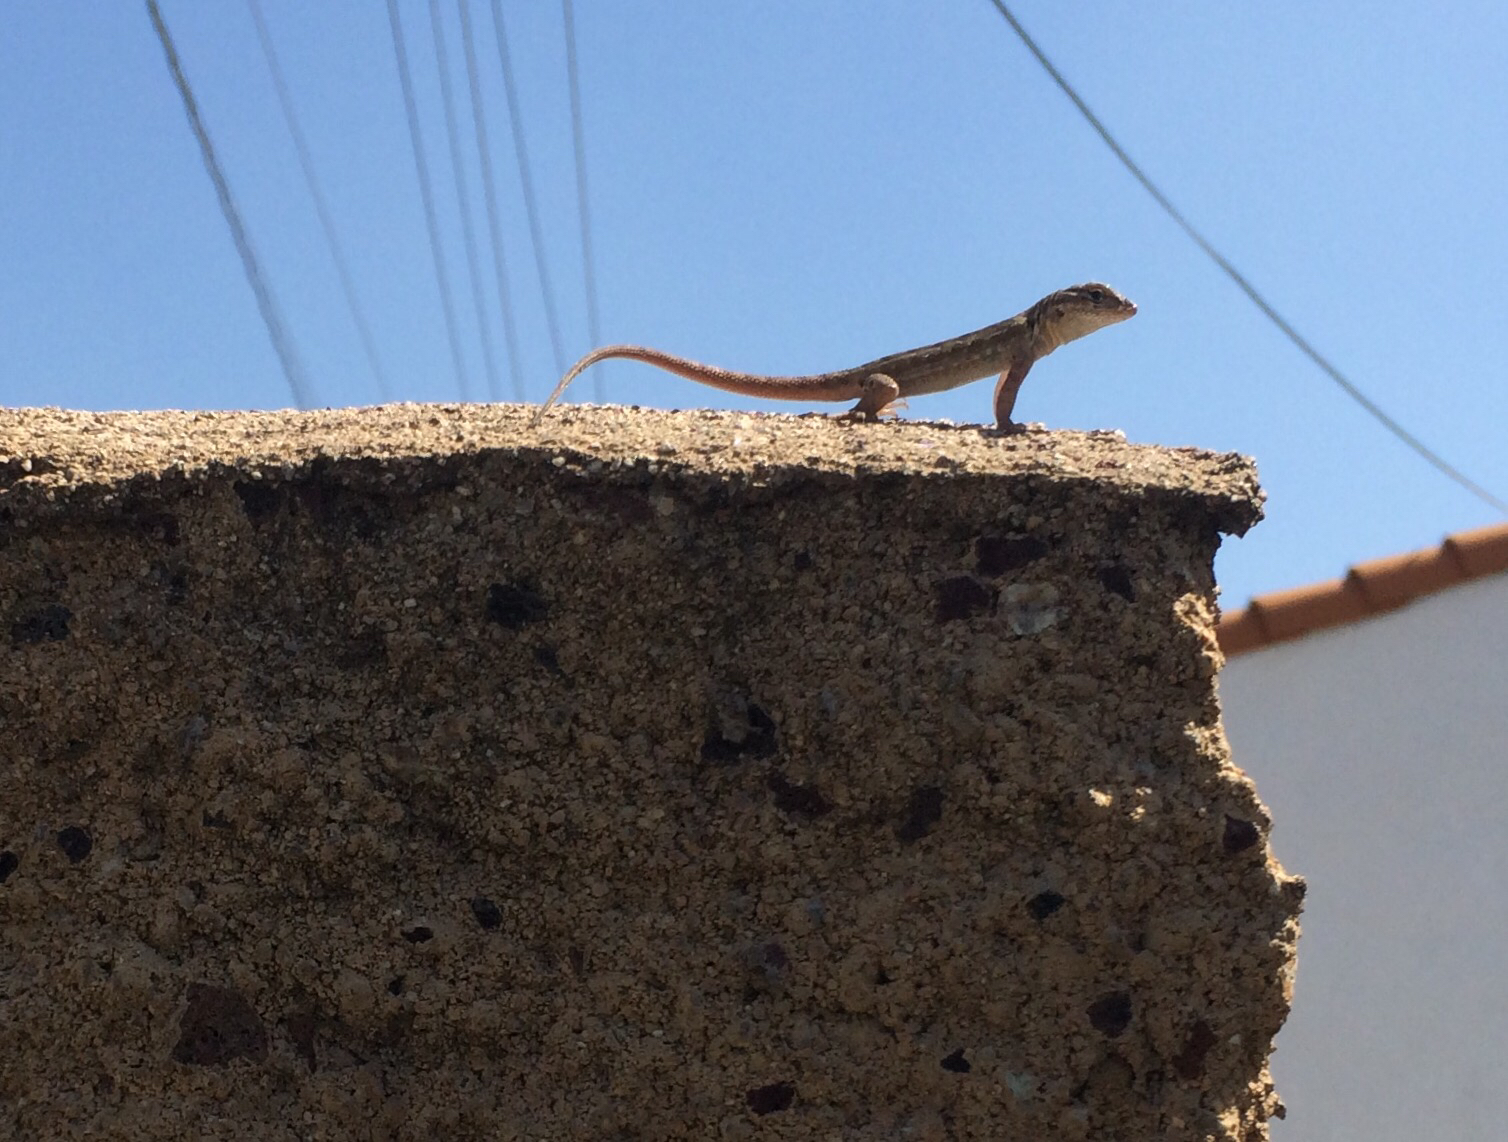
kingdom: Animalia
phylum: Chordata
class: Squamata
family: Phrynosomatidae
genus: Uta
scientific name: Uta stansburiana
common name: Side-blotched lizard
